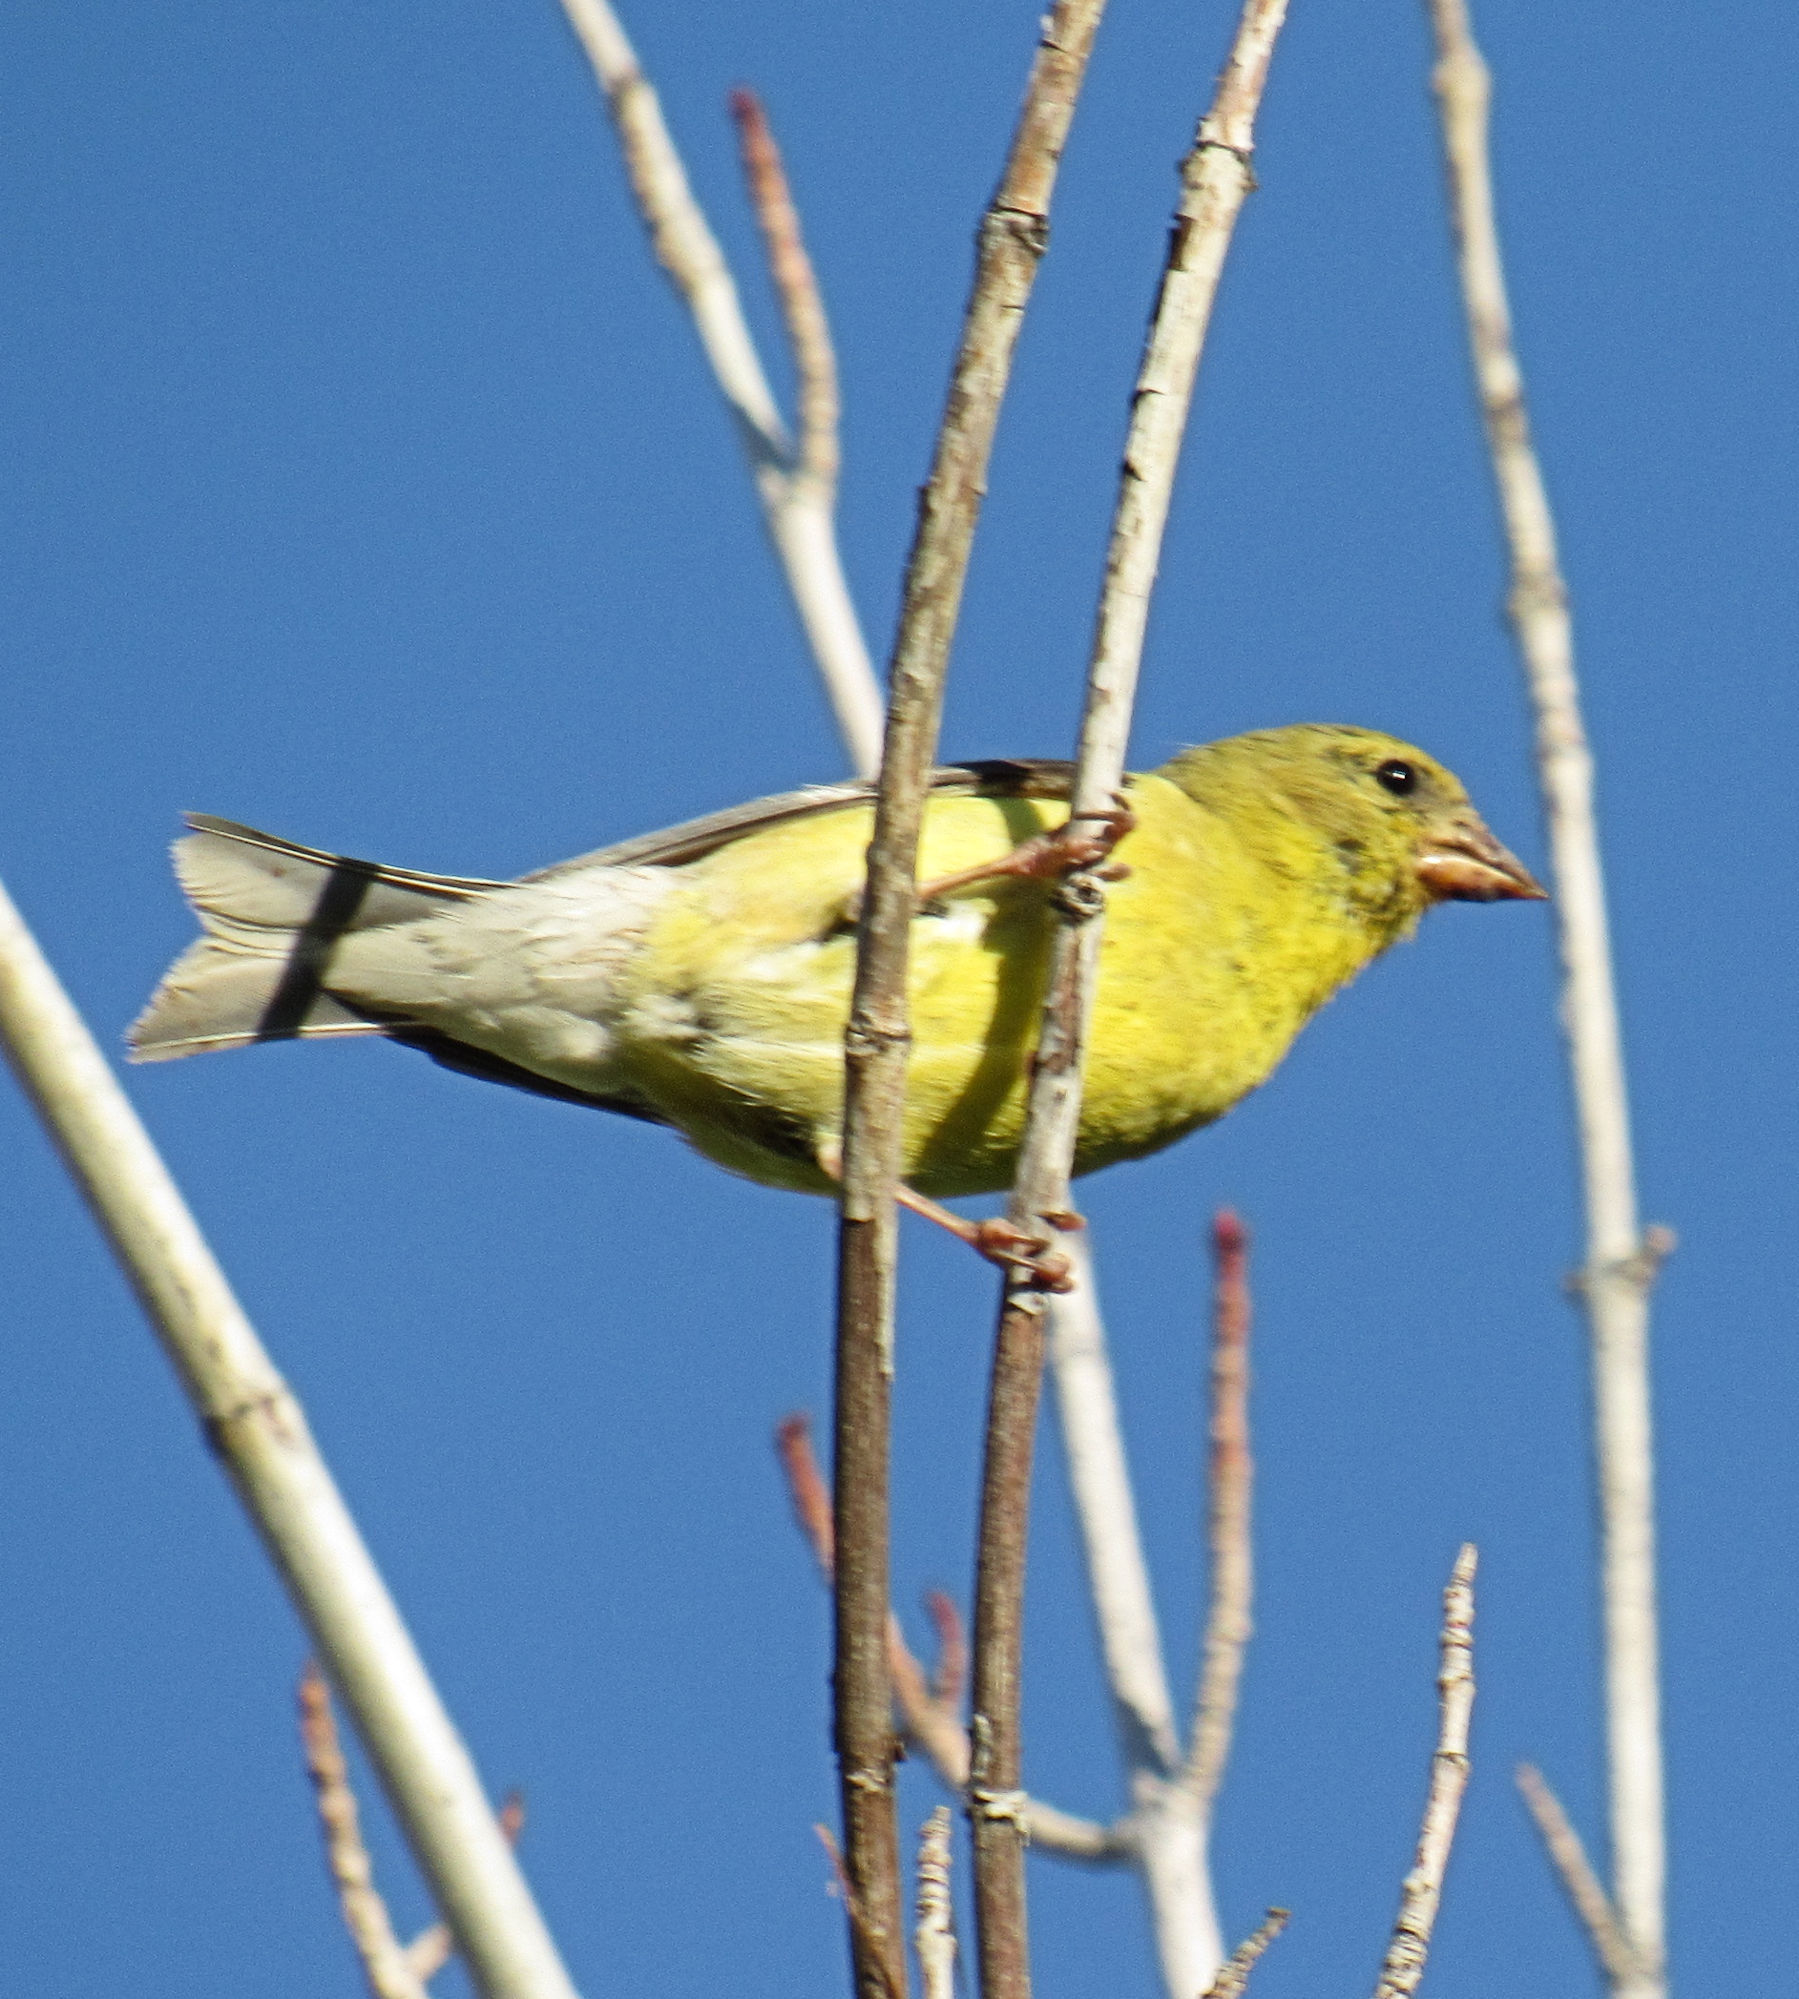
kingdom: Animalia
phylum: Chordata
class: Aves
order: Passeriformes
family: Fringillidae
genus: Spinus
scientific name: Spinus tristis
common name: American goldfinch
